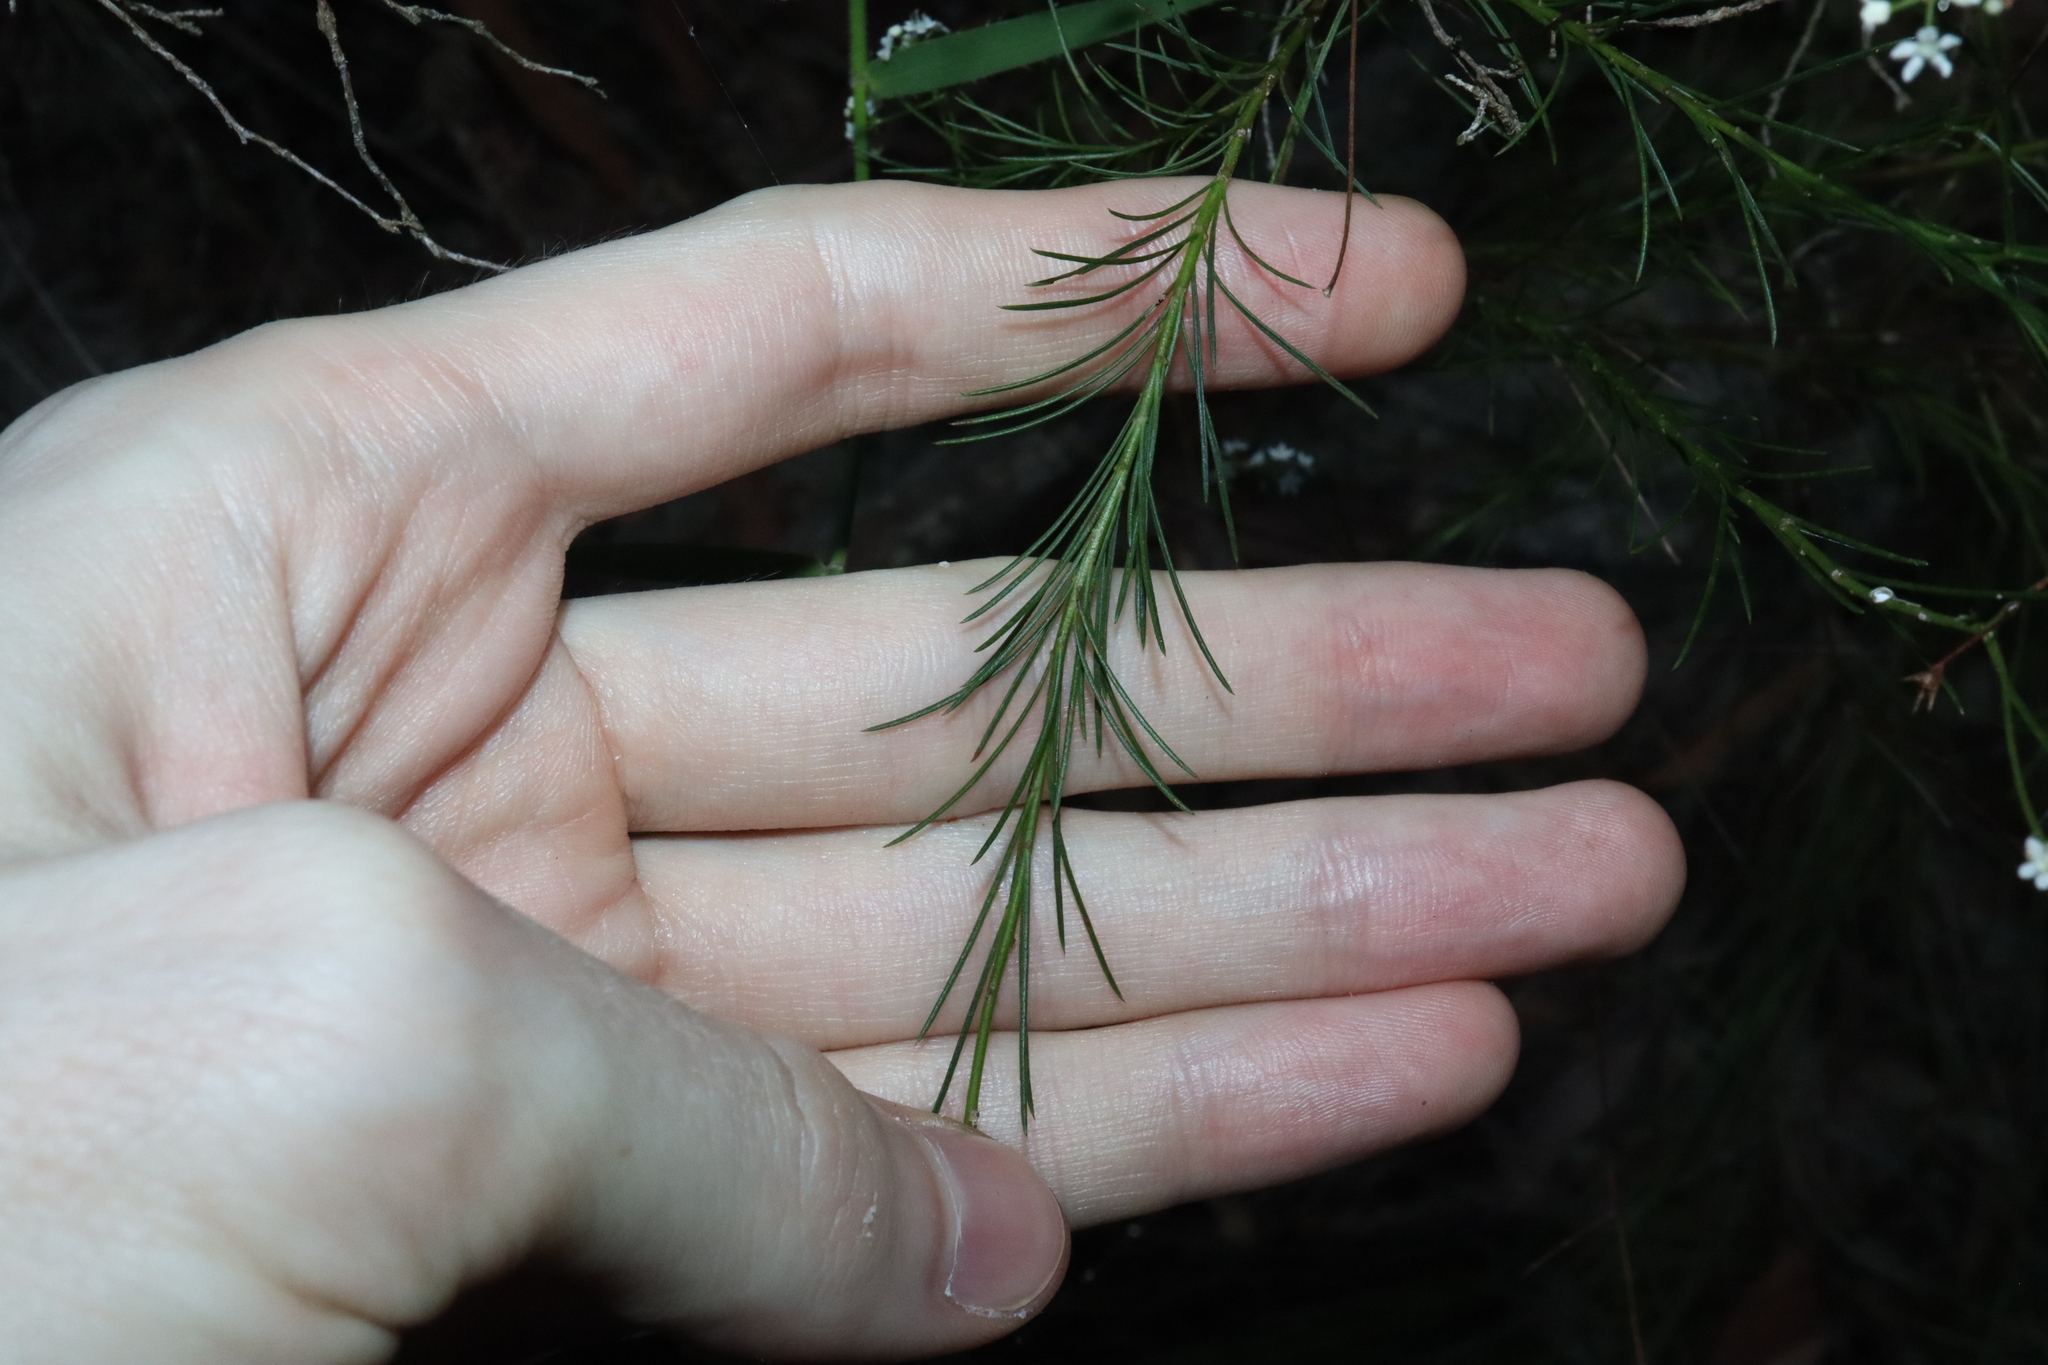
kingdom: Plantae
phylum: Tracheophyta
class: Magnoliopsida
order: Apiales
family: Apiaceae
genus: Platysace
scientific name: Platysace linearifolia
